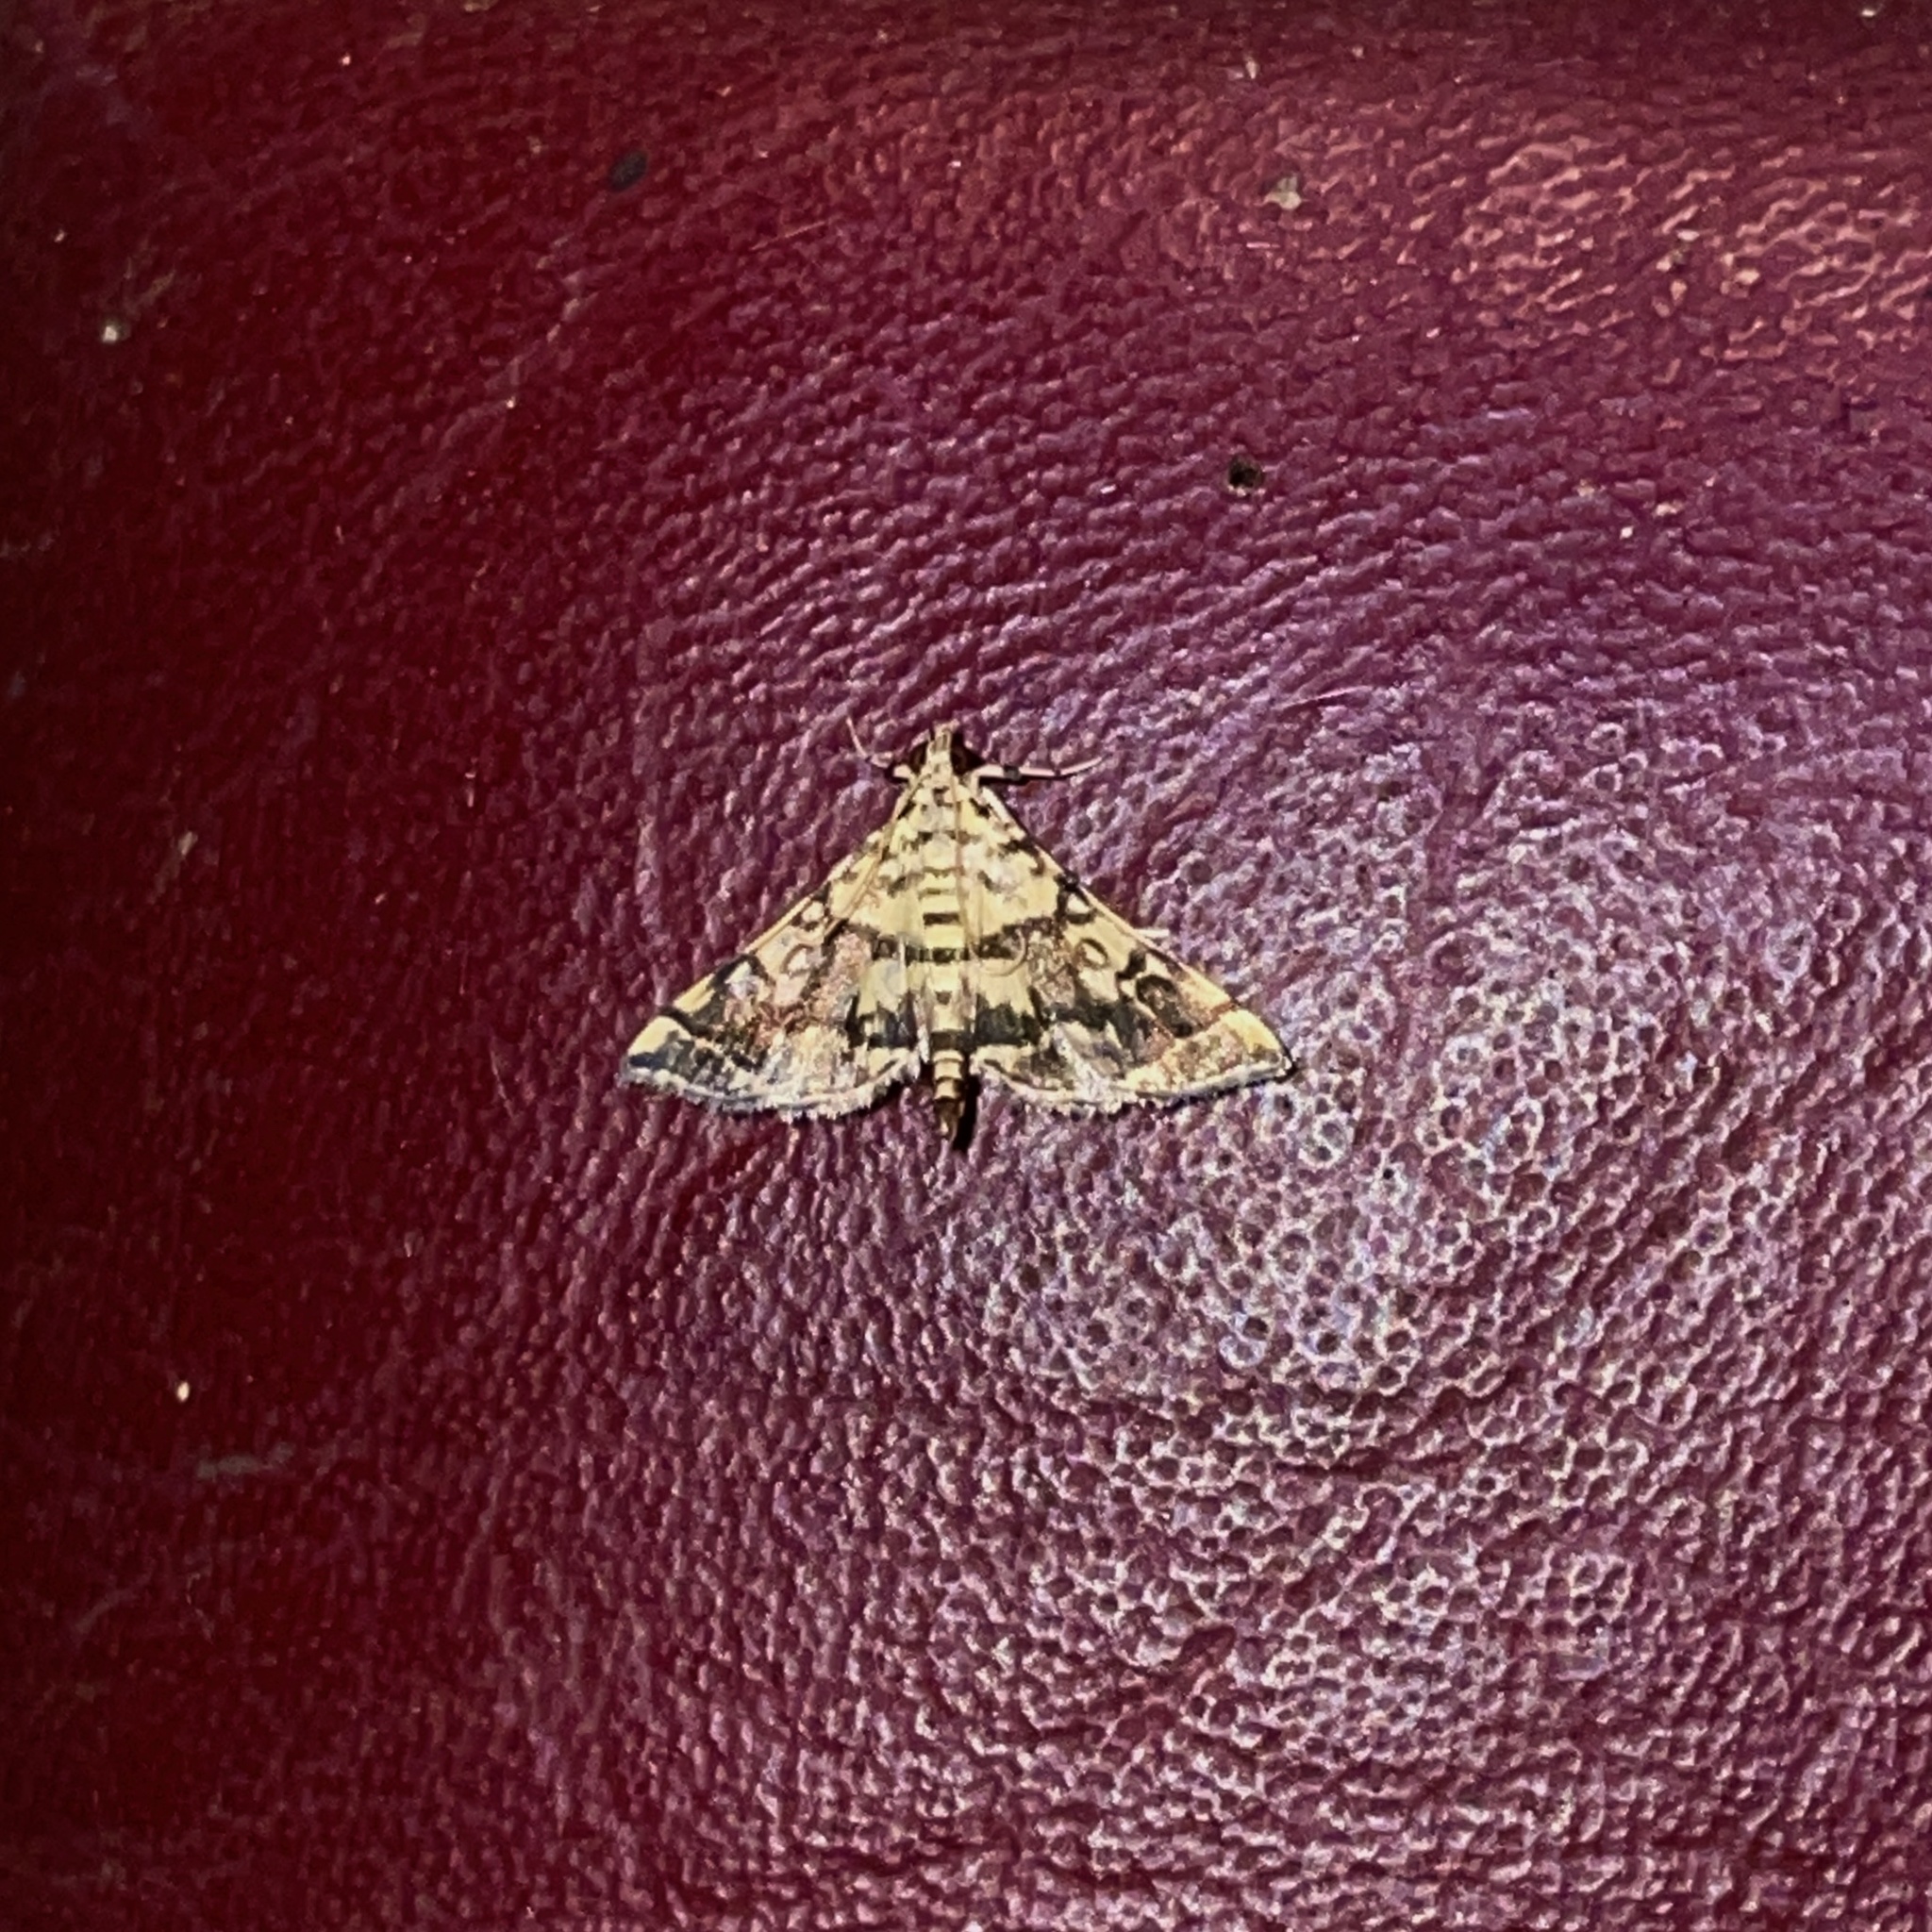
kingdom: Animalia
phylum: Arthropoda
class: Insecta
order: Lepidoptera
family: Crambidae
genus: Apogeshna
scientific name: Apogeshna stenialis
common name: Checkered apogeshna moth
